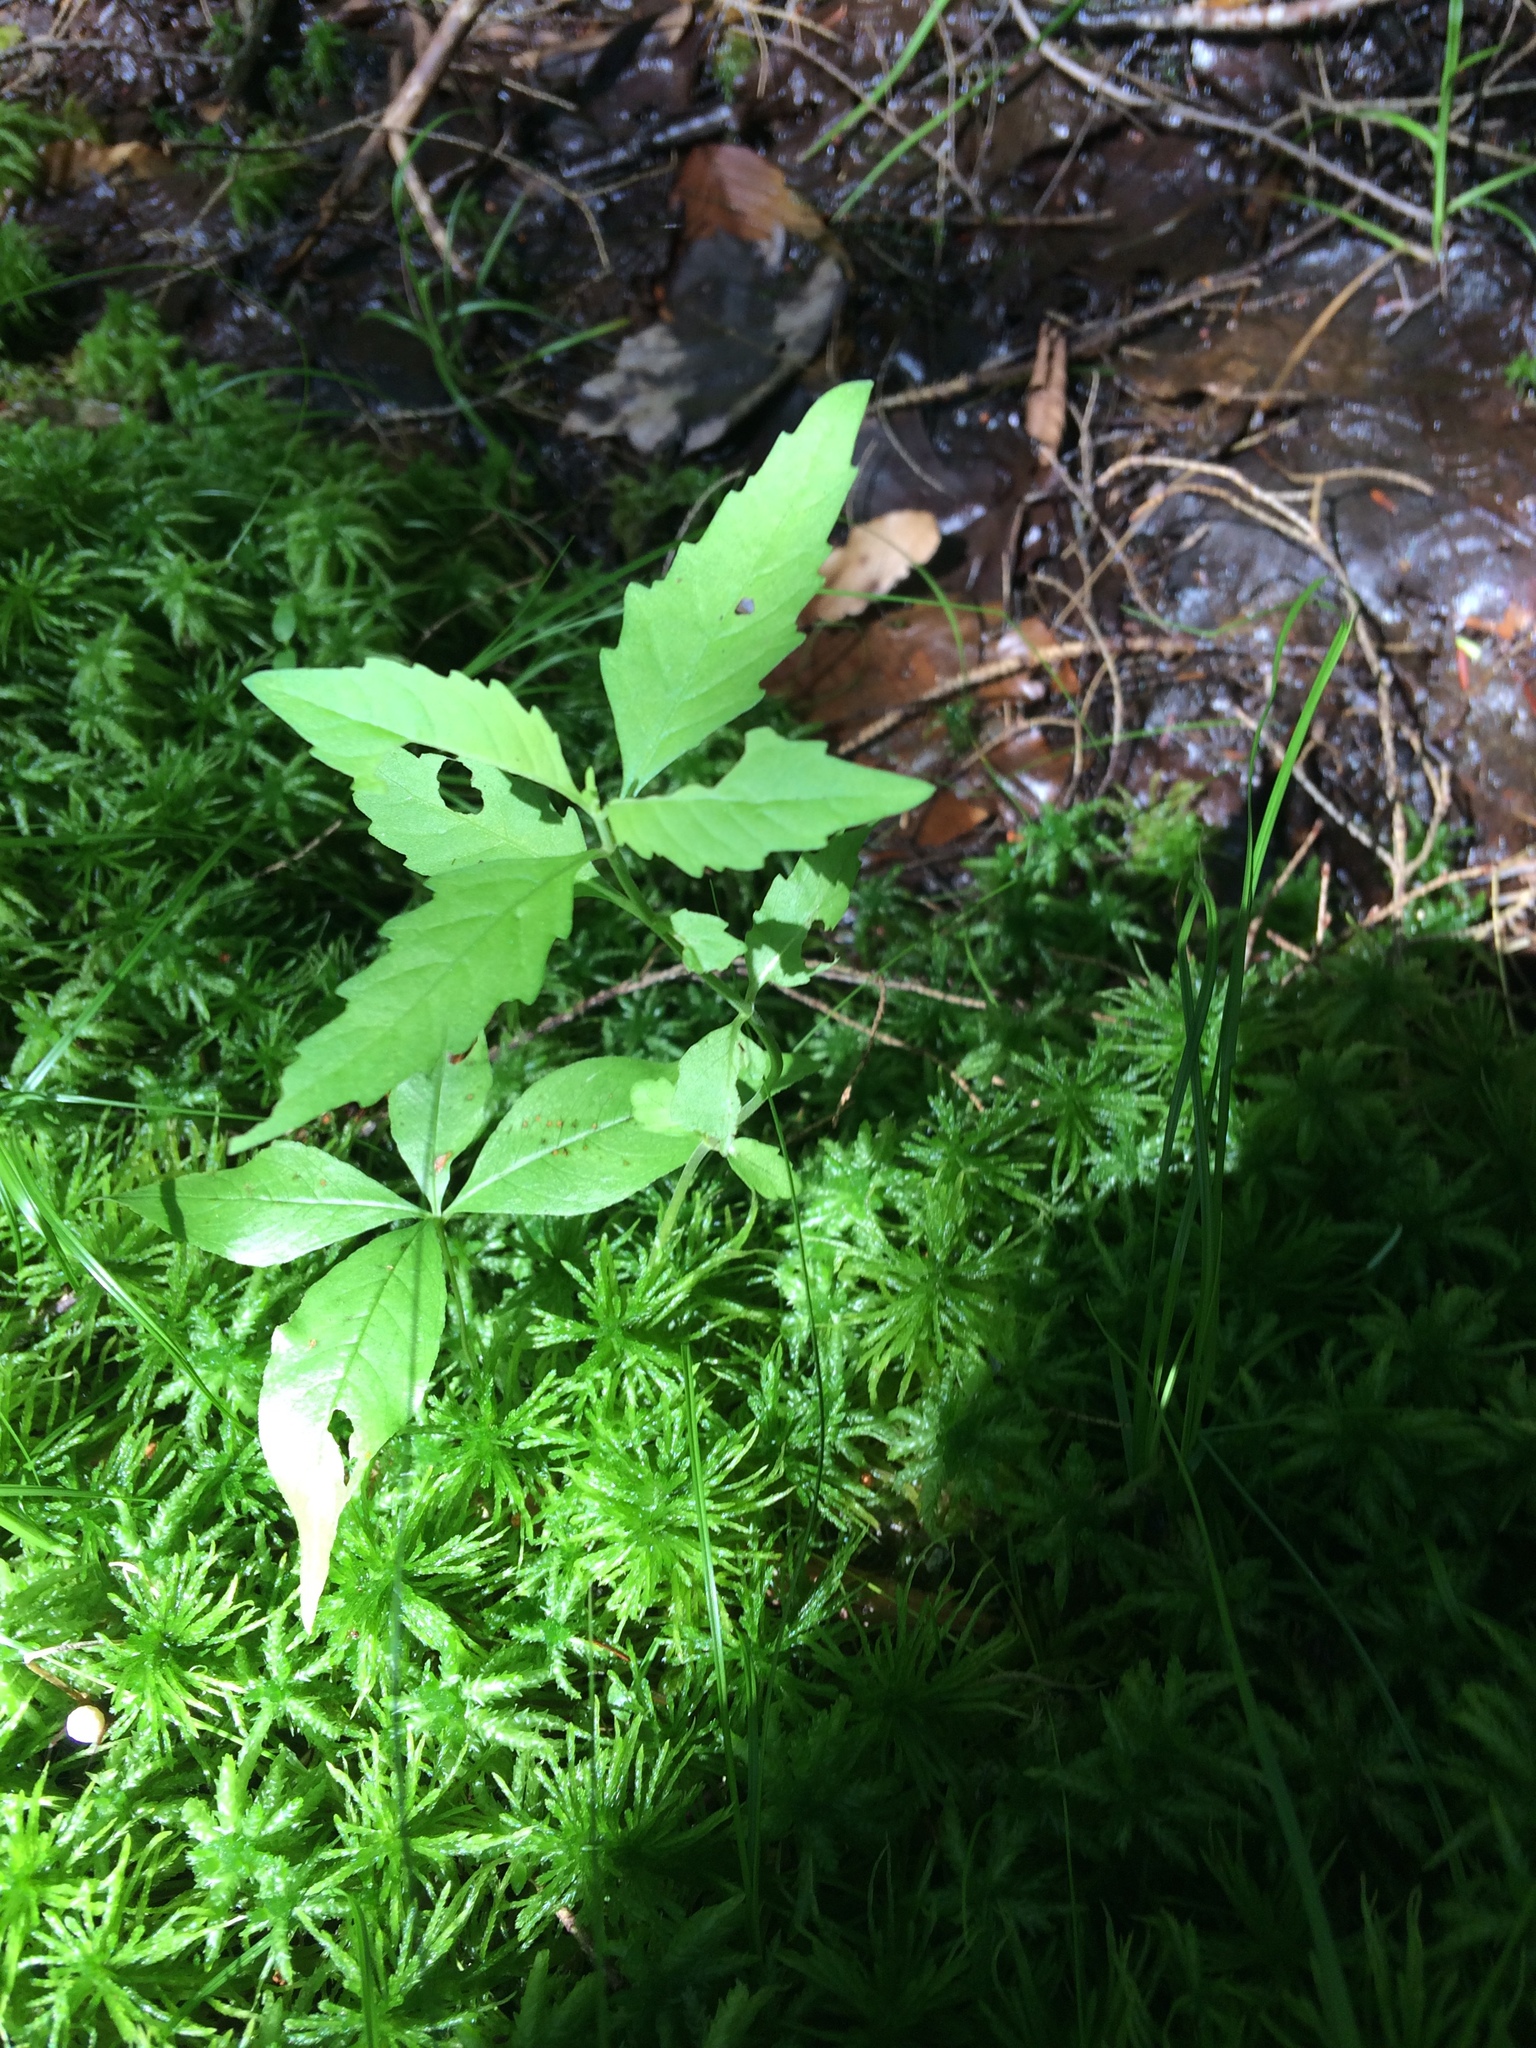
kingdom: Plantae
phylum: Tracheophyta
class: Magnoliopsida
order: Lamiales
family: Lamiaceae
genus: Lycopus
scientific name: Lycopus uniflorus
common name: Northern bugleweed
